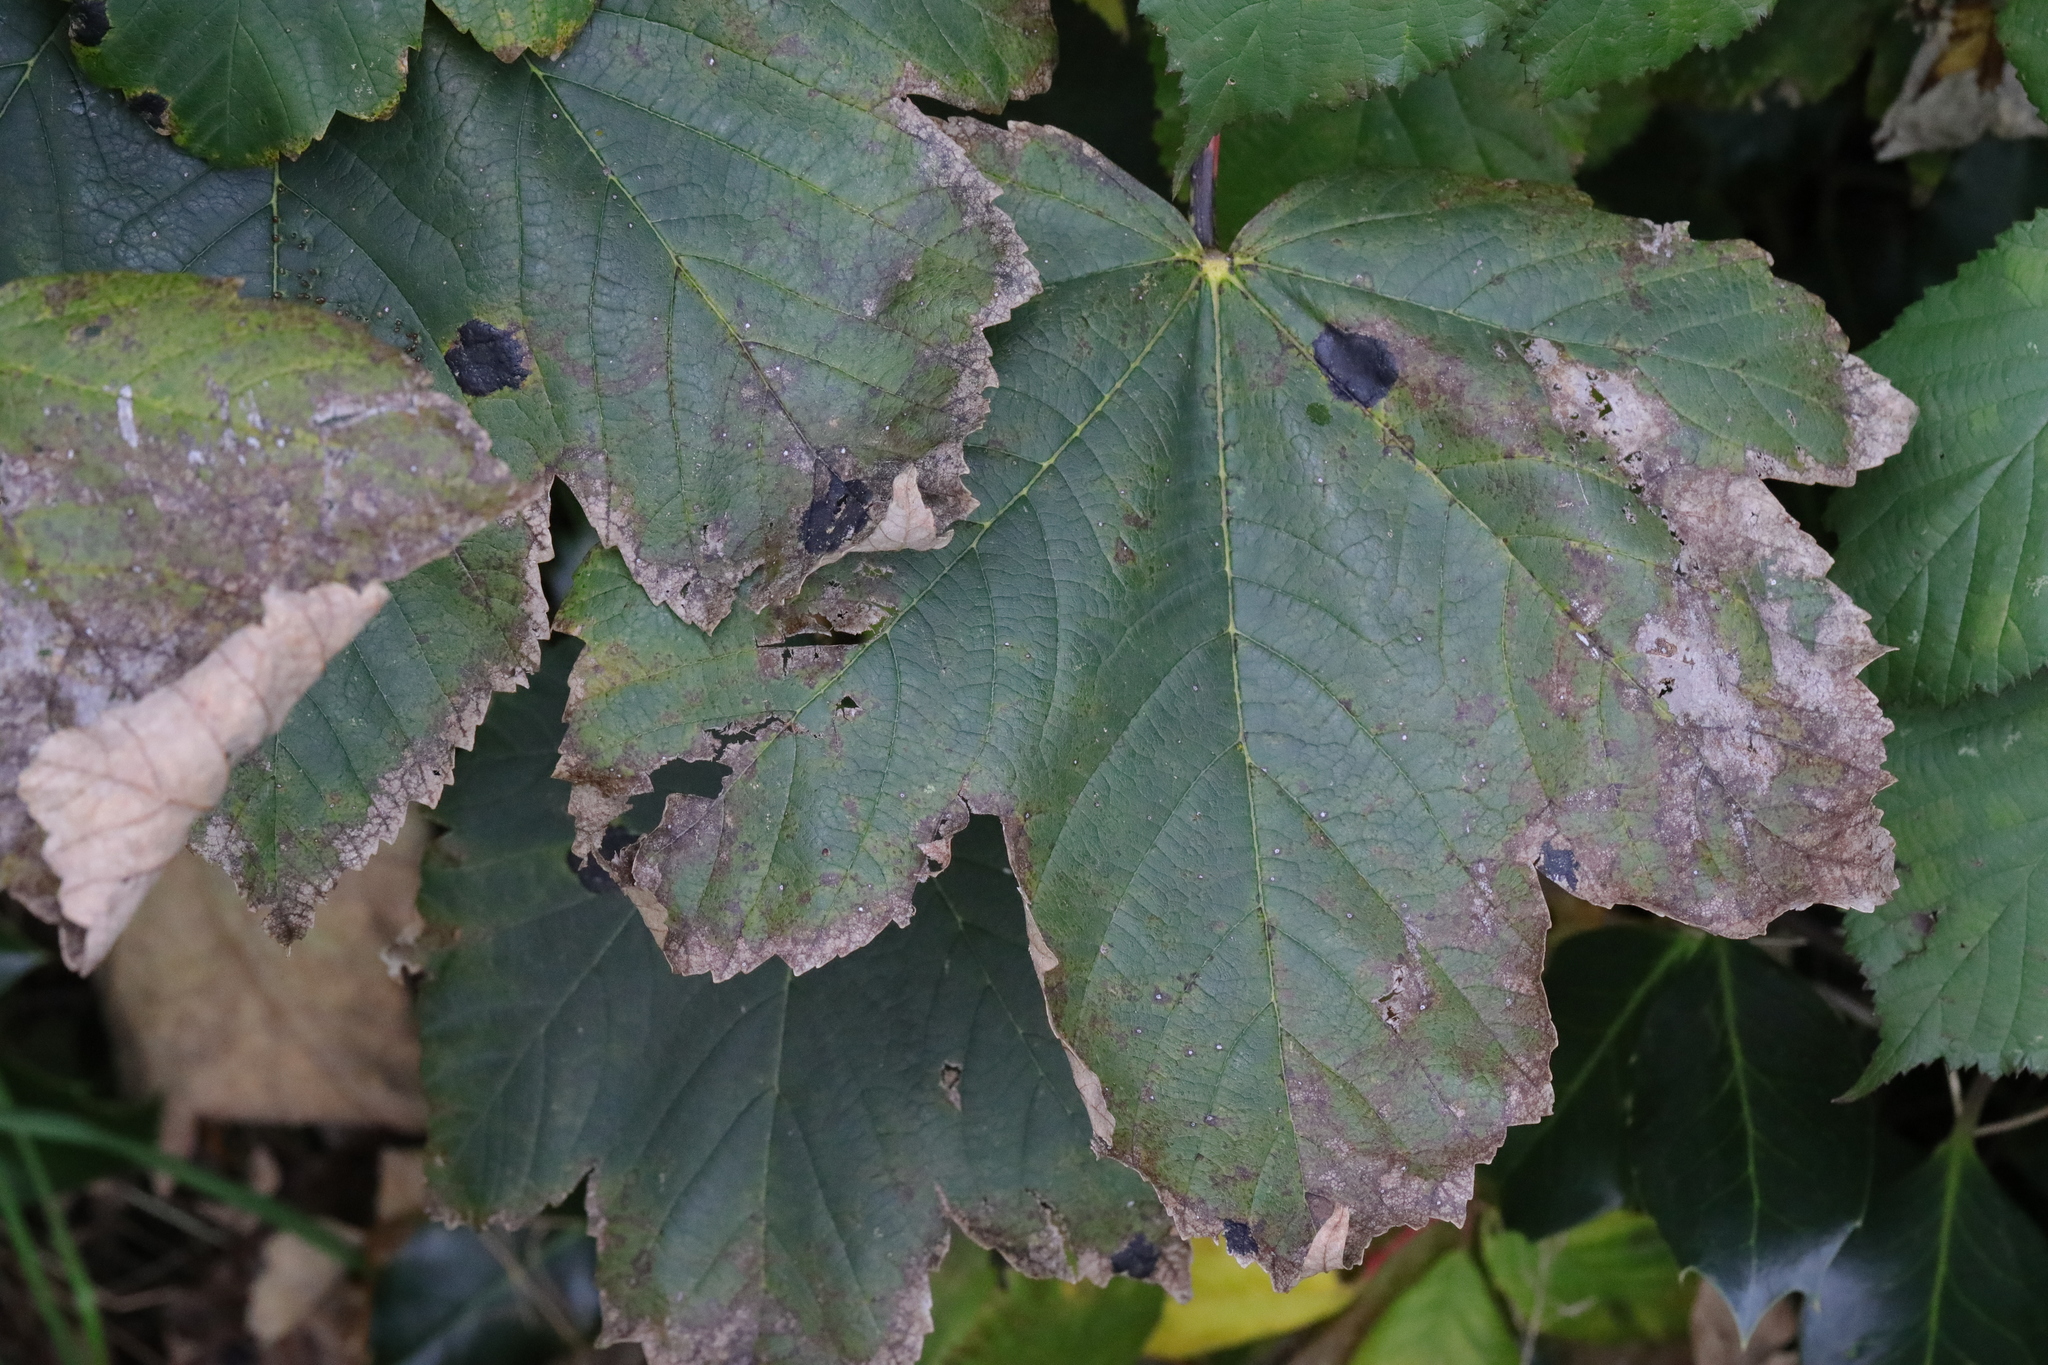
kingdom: Plantae
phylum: Tracheophyta
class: Magnoliopsida
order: Sapindales
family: Sapindaceae
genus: Acer
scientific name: Acer pseudoplatanus
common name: Sycamore
